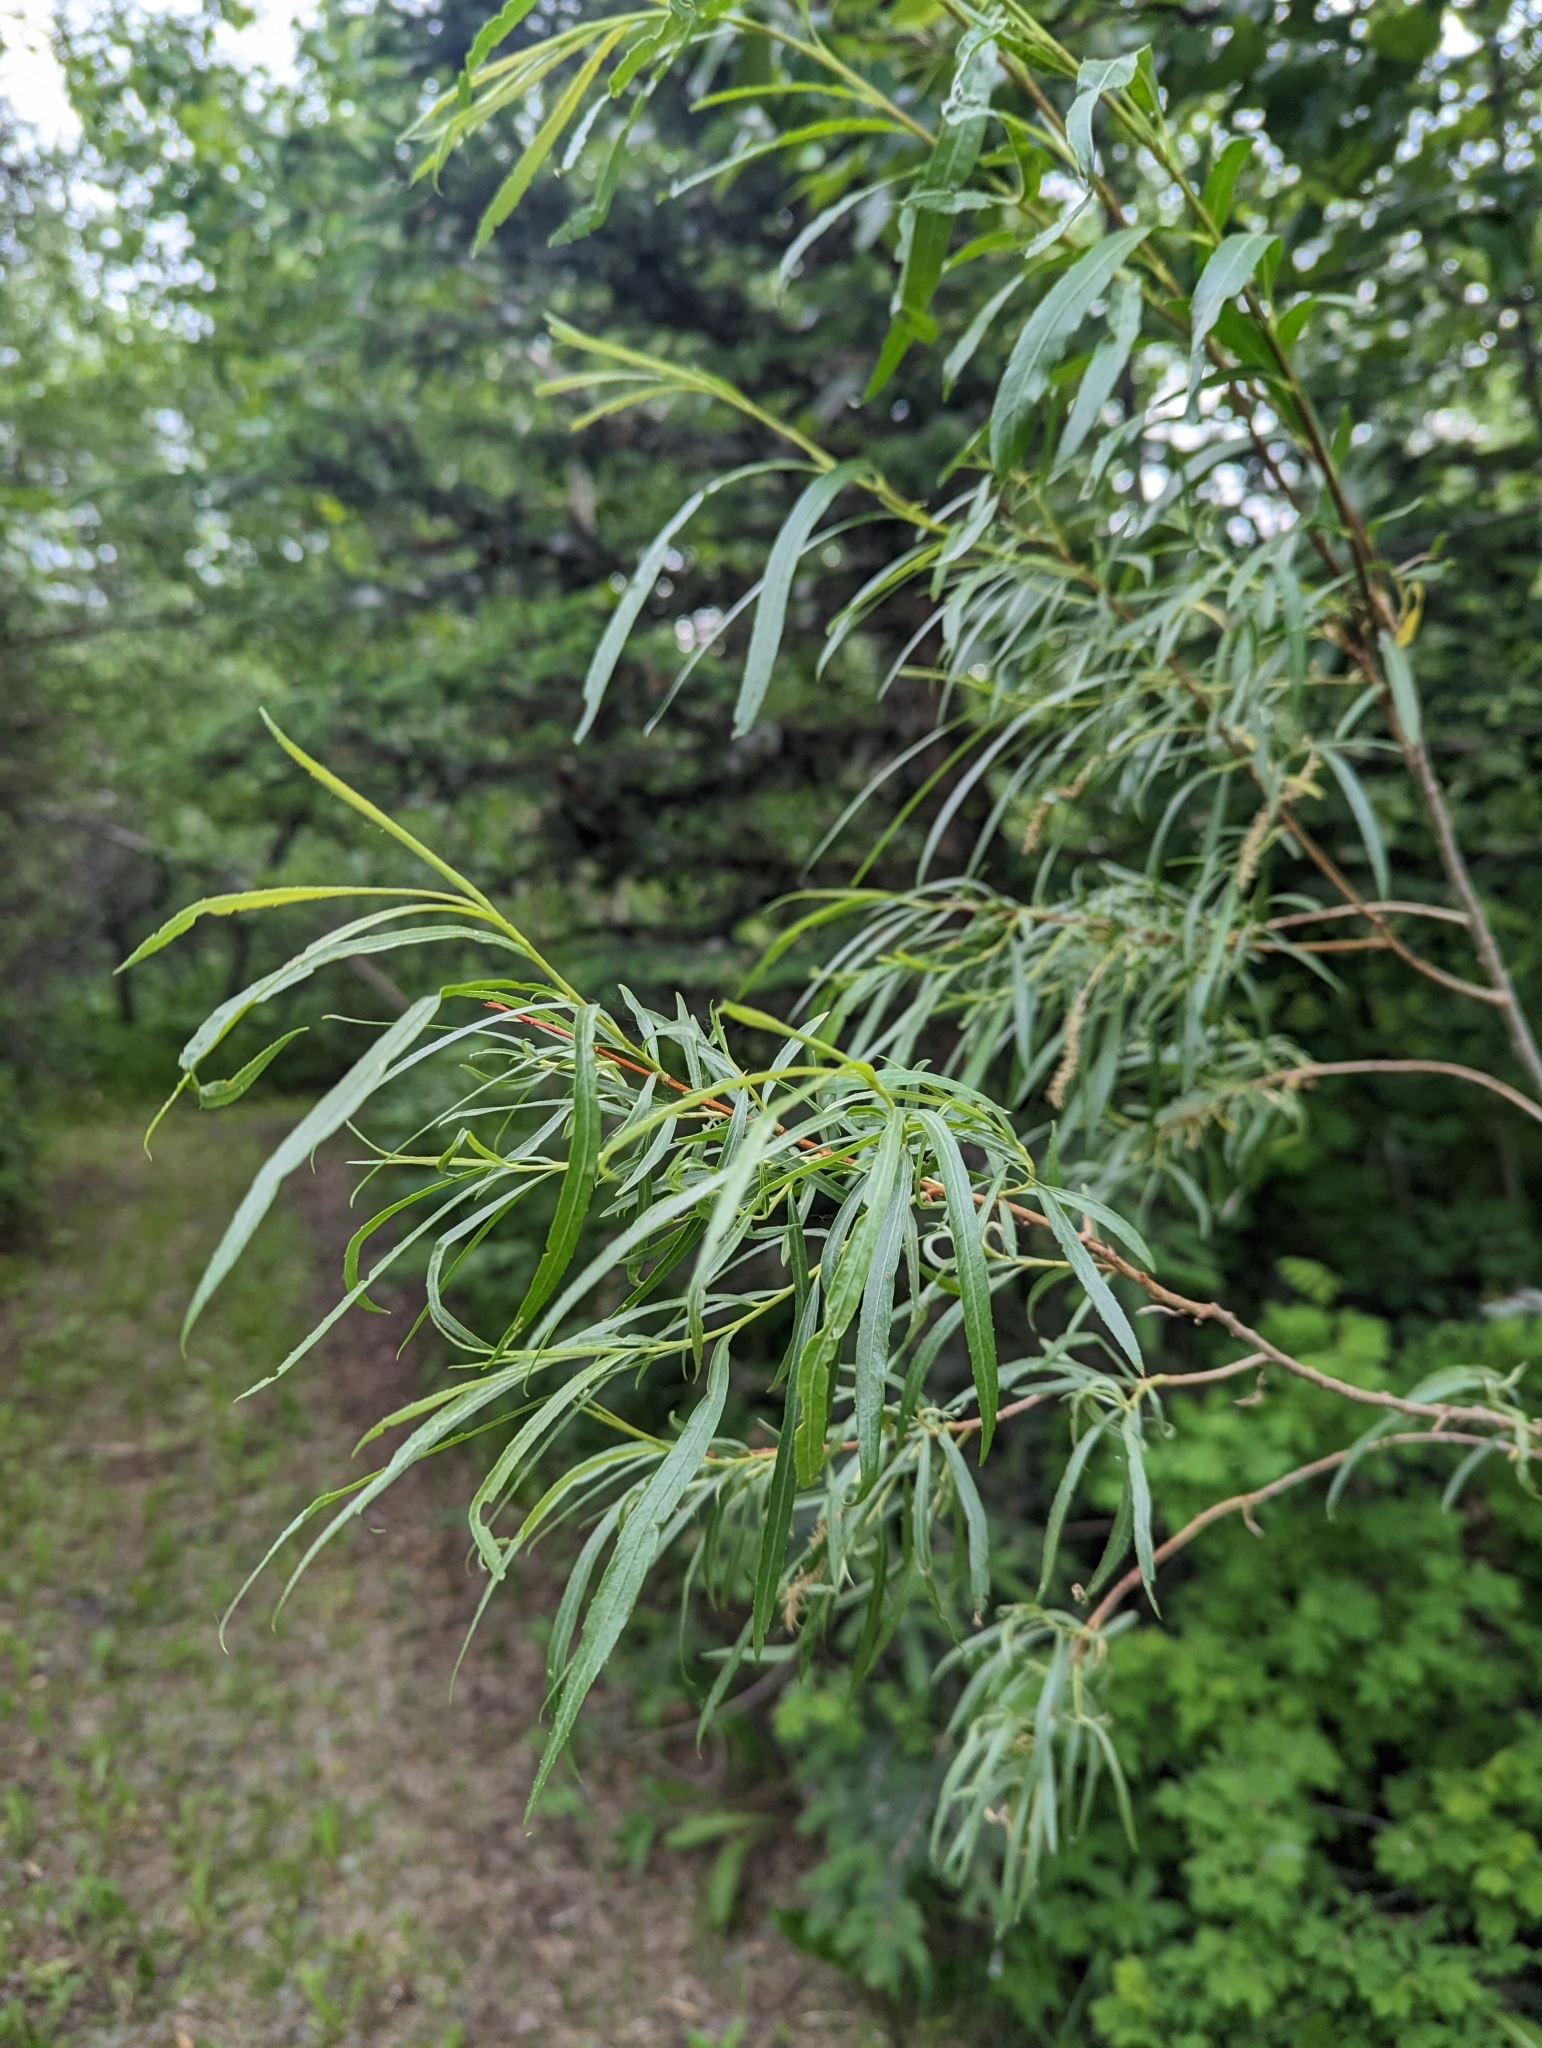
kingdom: Plantae
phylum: Tracheophyta
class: Magnoliopsida
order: Malpighiales
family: Salicaceae
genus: Salix
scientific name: Salix interior
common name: Sandbar willow
